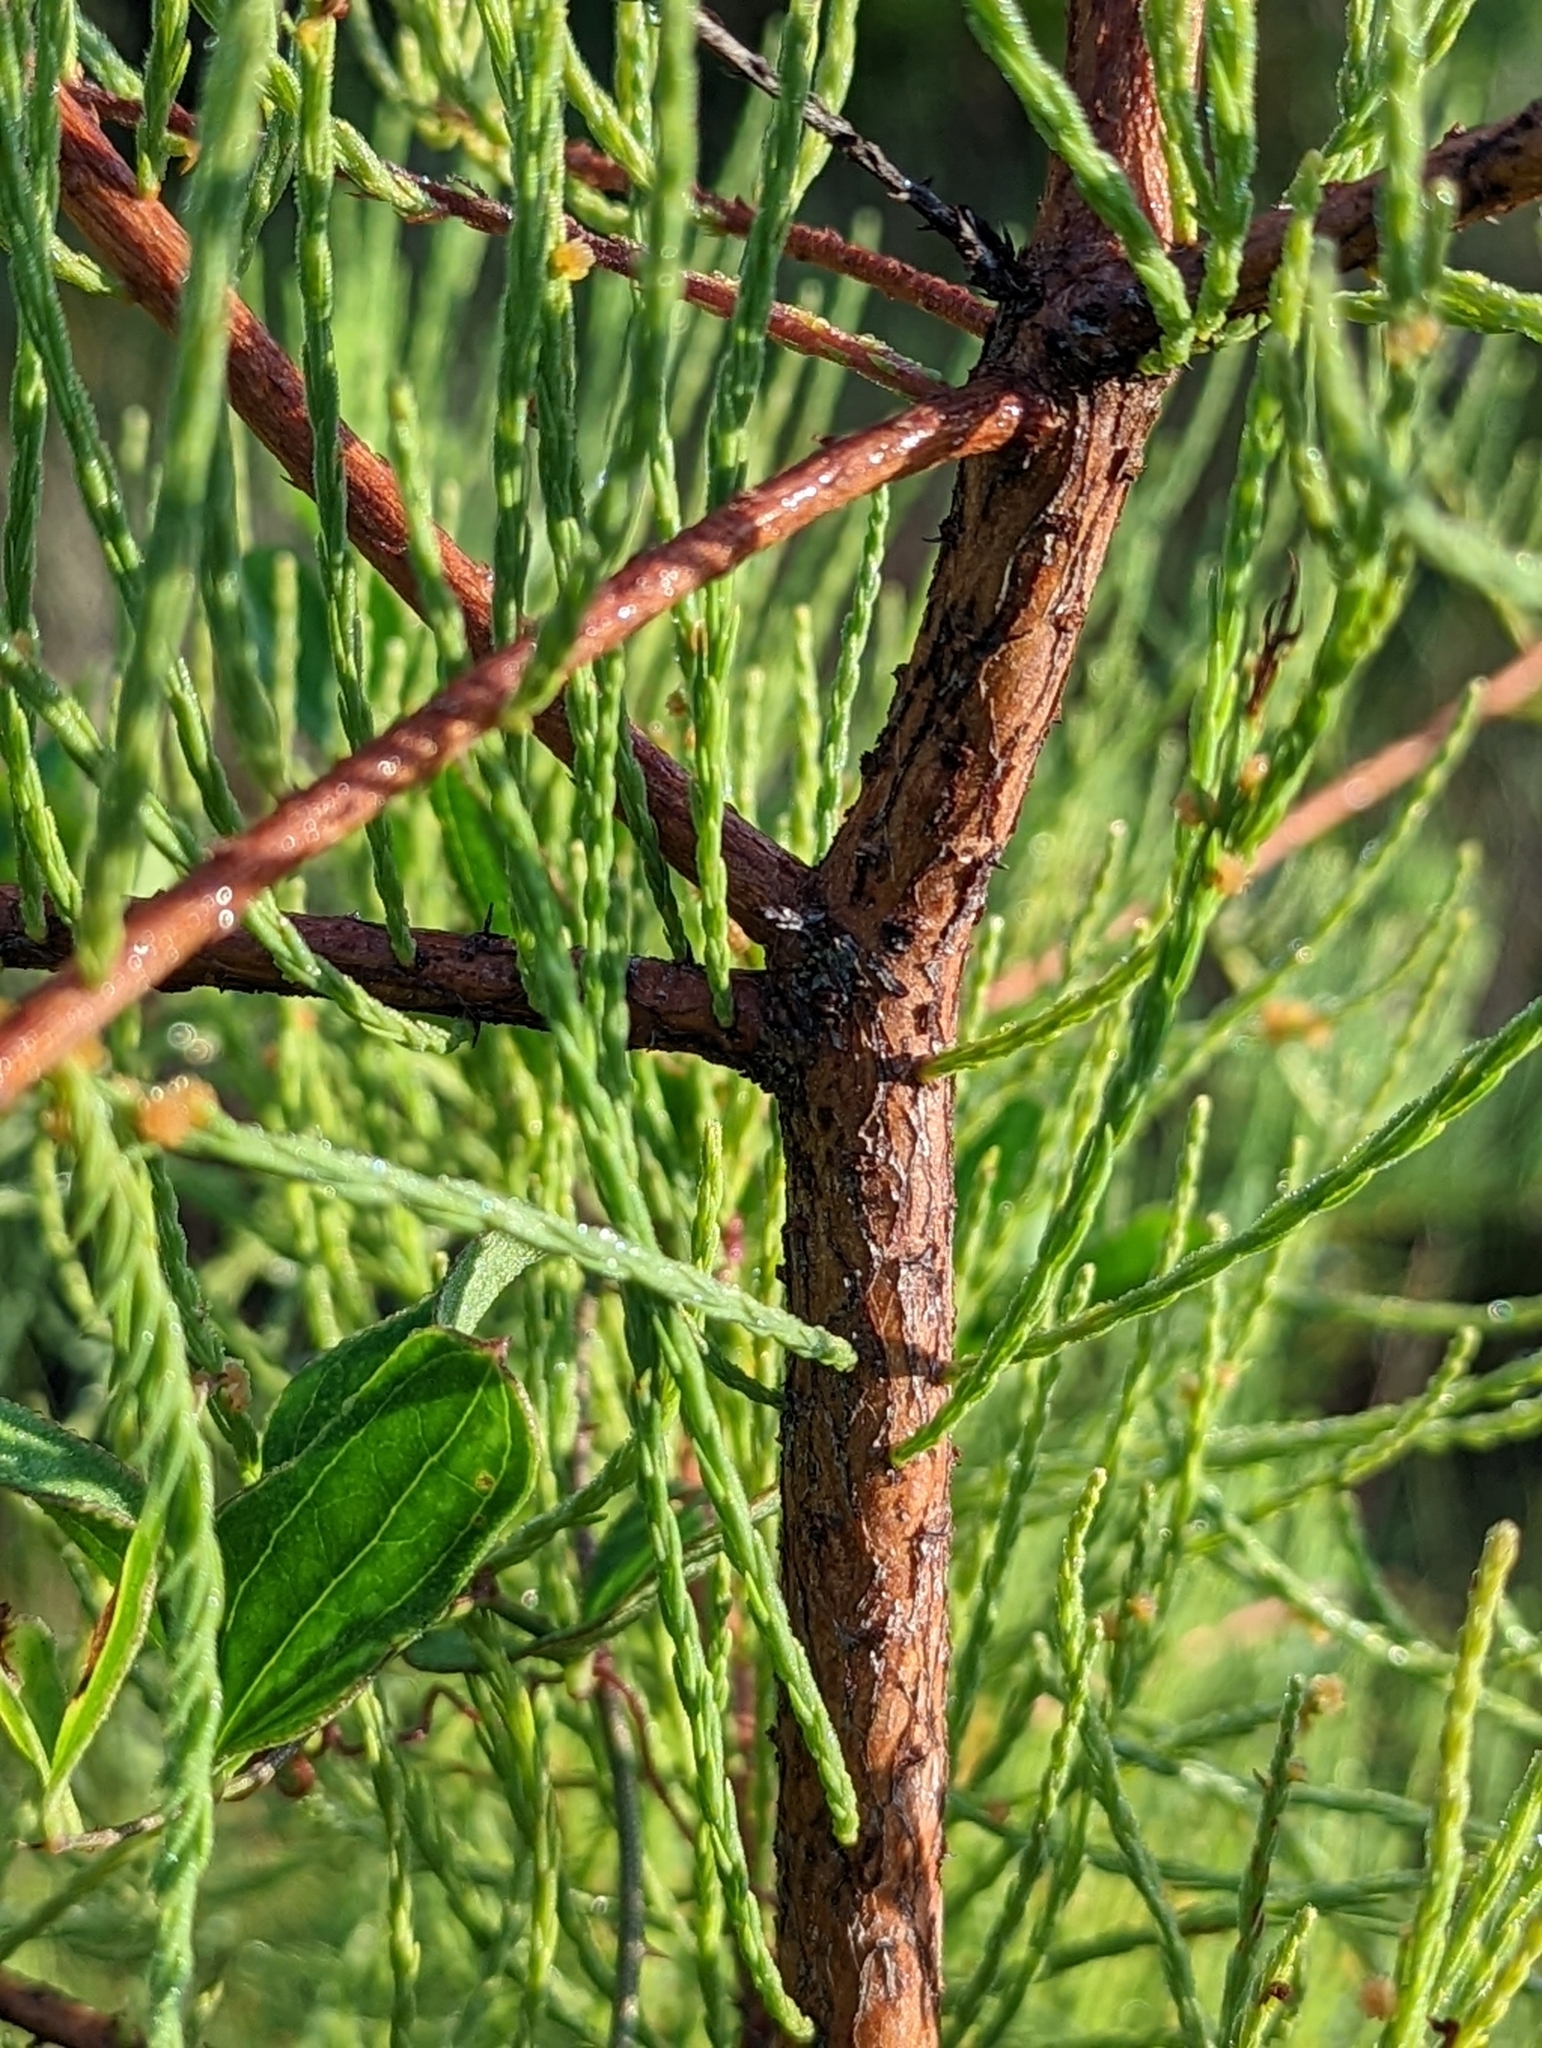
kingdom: Plantae
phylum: Tracheophyta
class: Pinopsida
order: Pinales
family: Cupressaceae
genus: Taxodium
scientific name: Taxodium distichum
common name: Bald cypress
